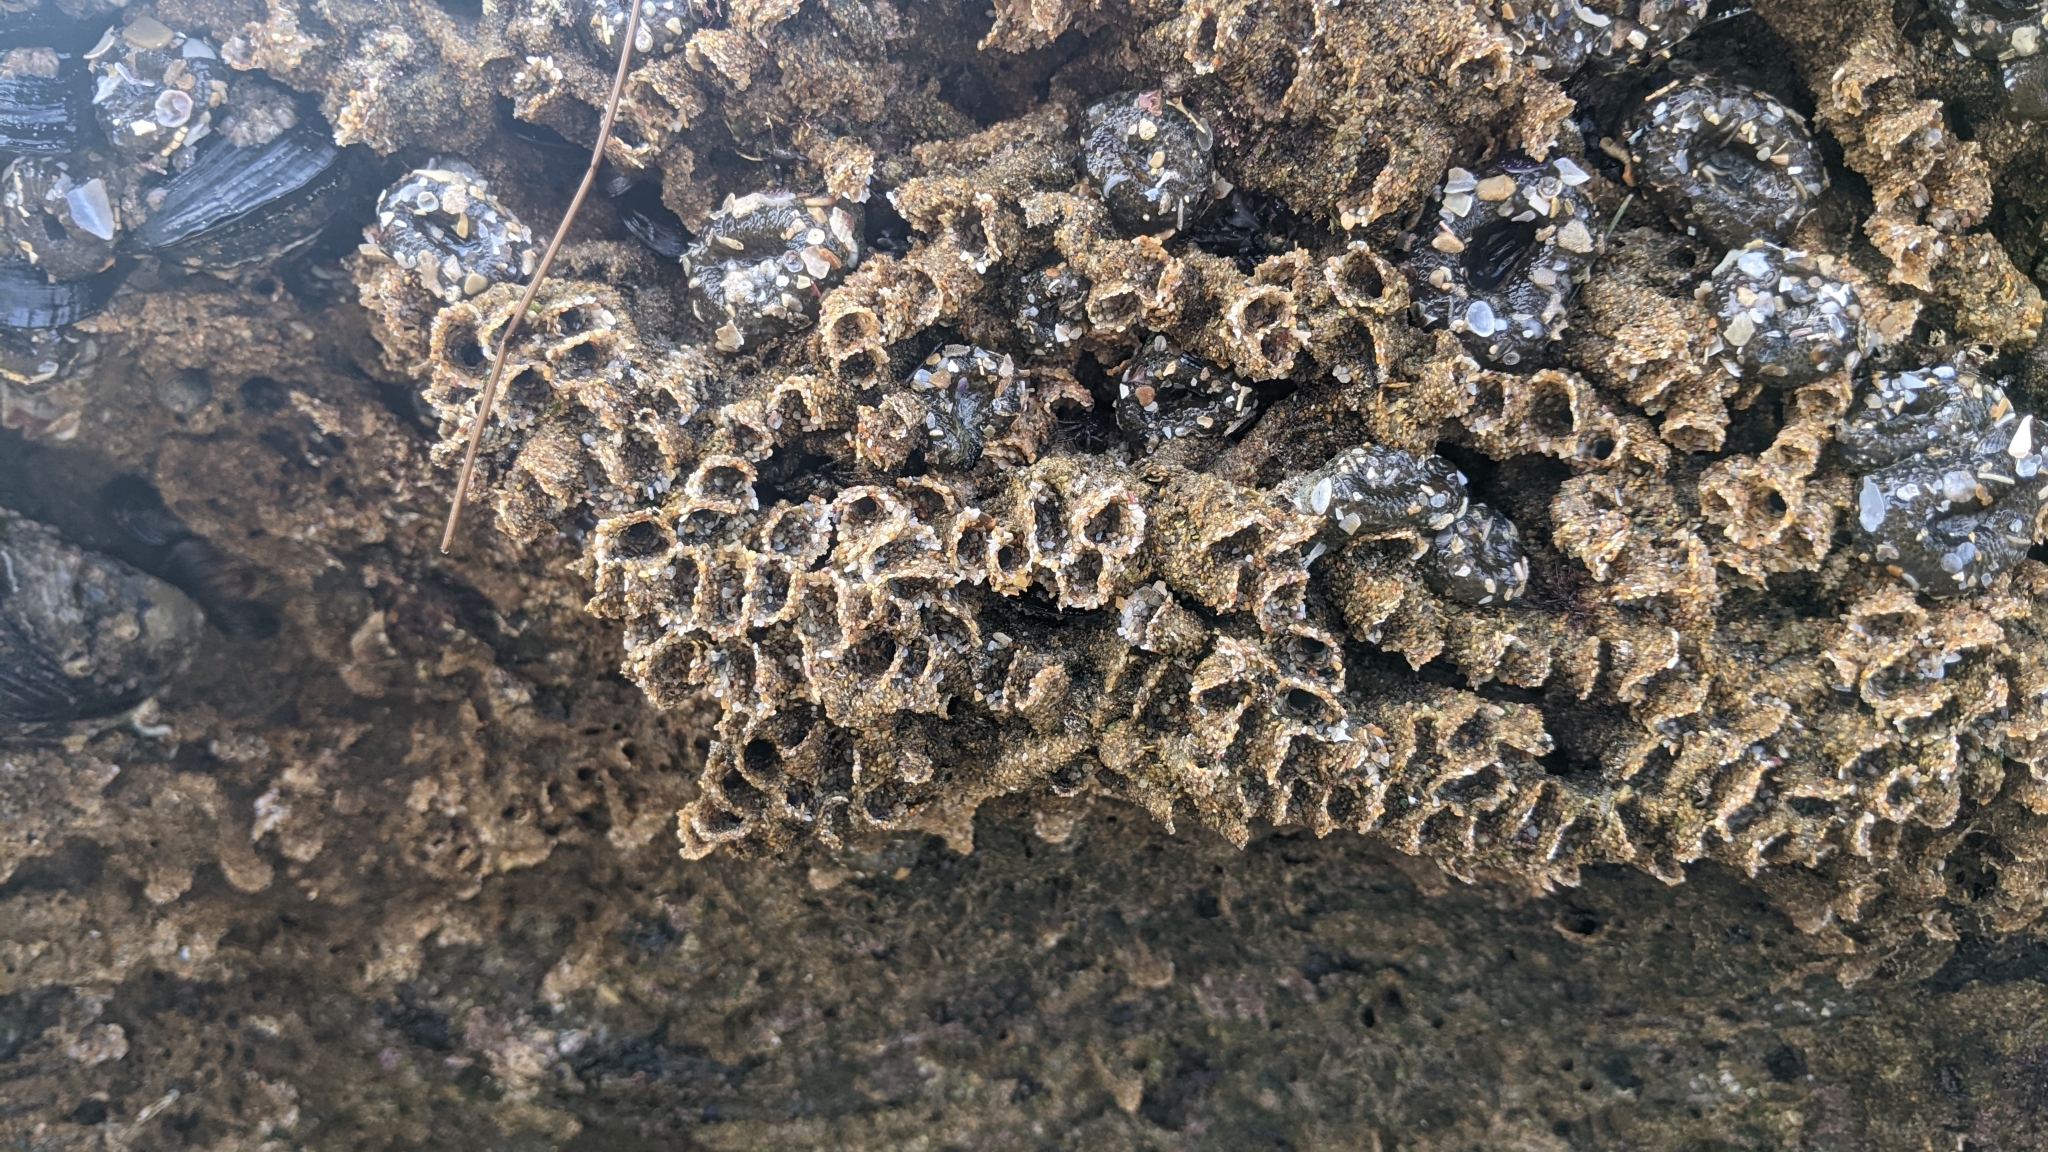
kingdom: Animalia
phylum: Annelida
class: Polychaeta
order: Sabellida
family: Sabellariidae
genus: Phragmatopoma
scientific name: Phragmatopoma californica
